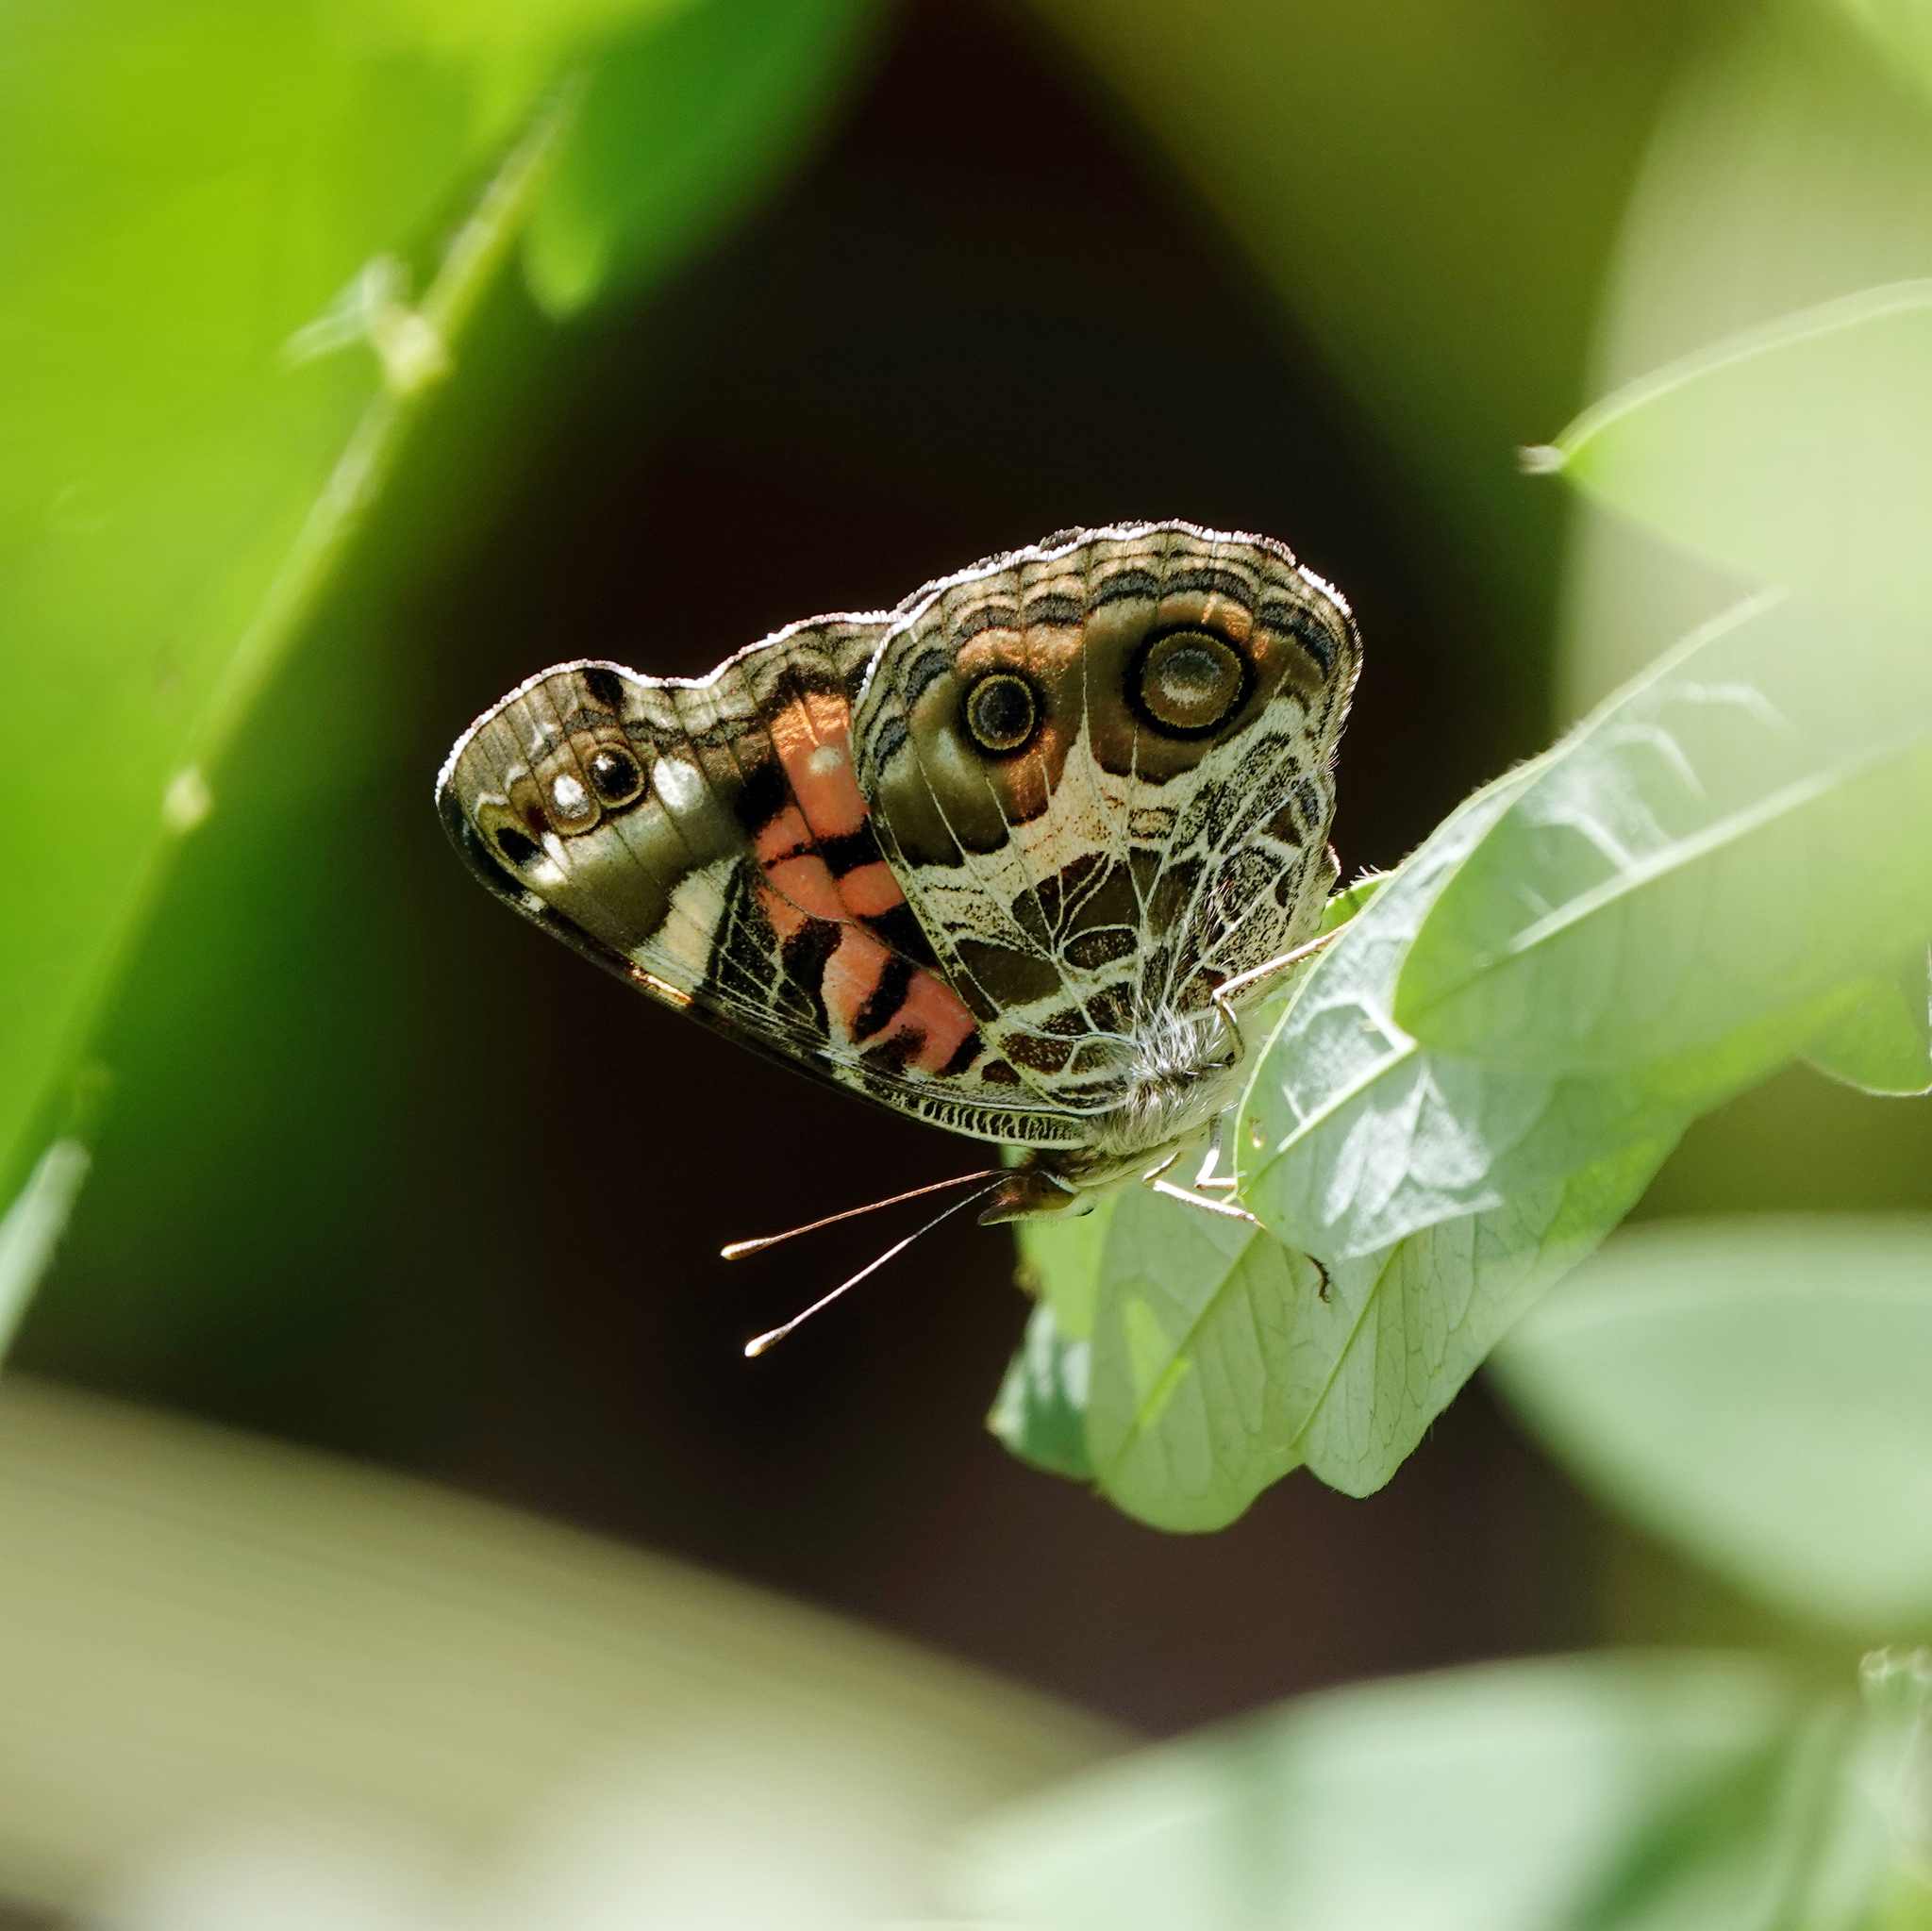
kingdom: Animalia
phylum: Arthropoda
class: Insecta
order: Lepidoptera
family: Nymphalidae
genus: Vanessa
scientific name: Vanessa virginiensis
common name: American lady
